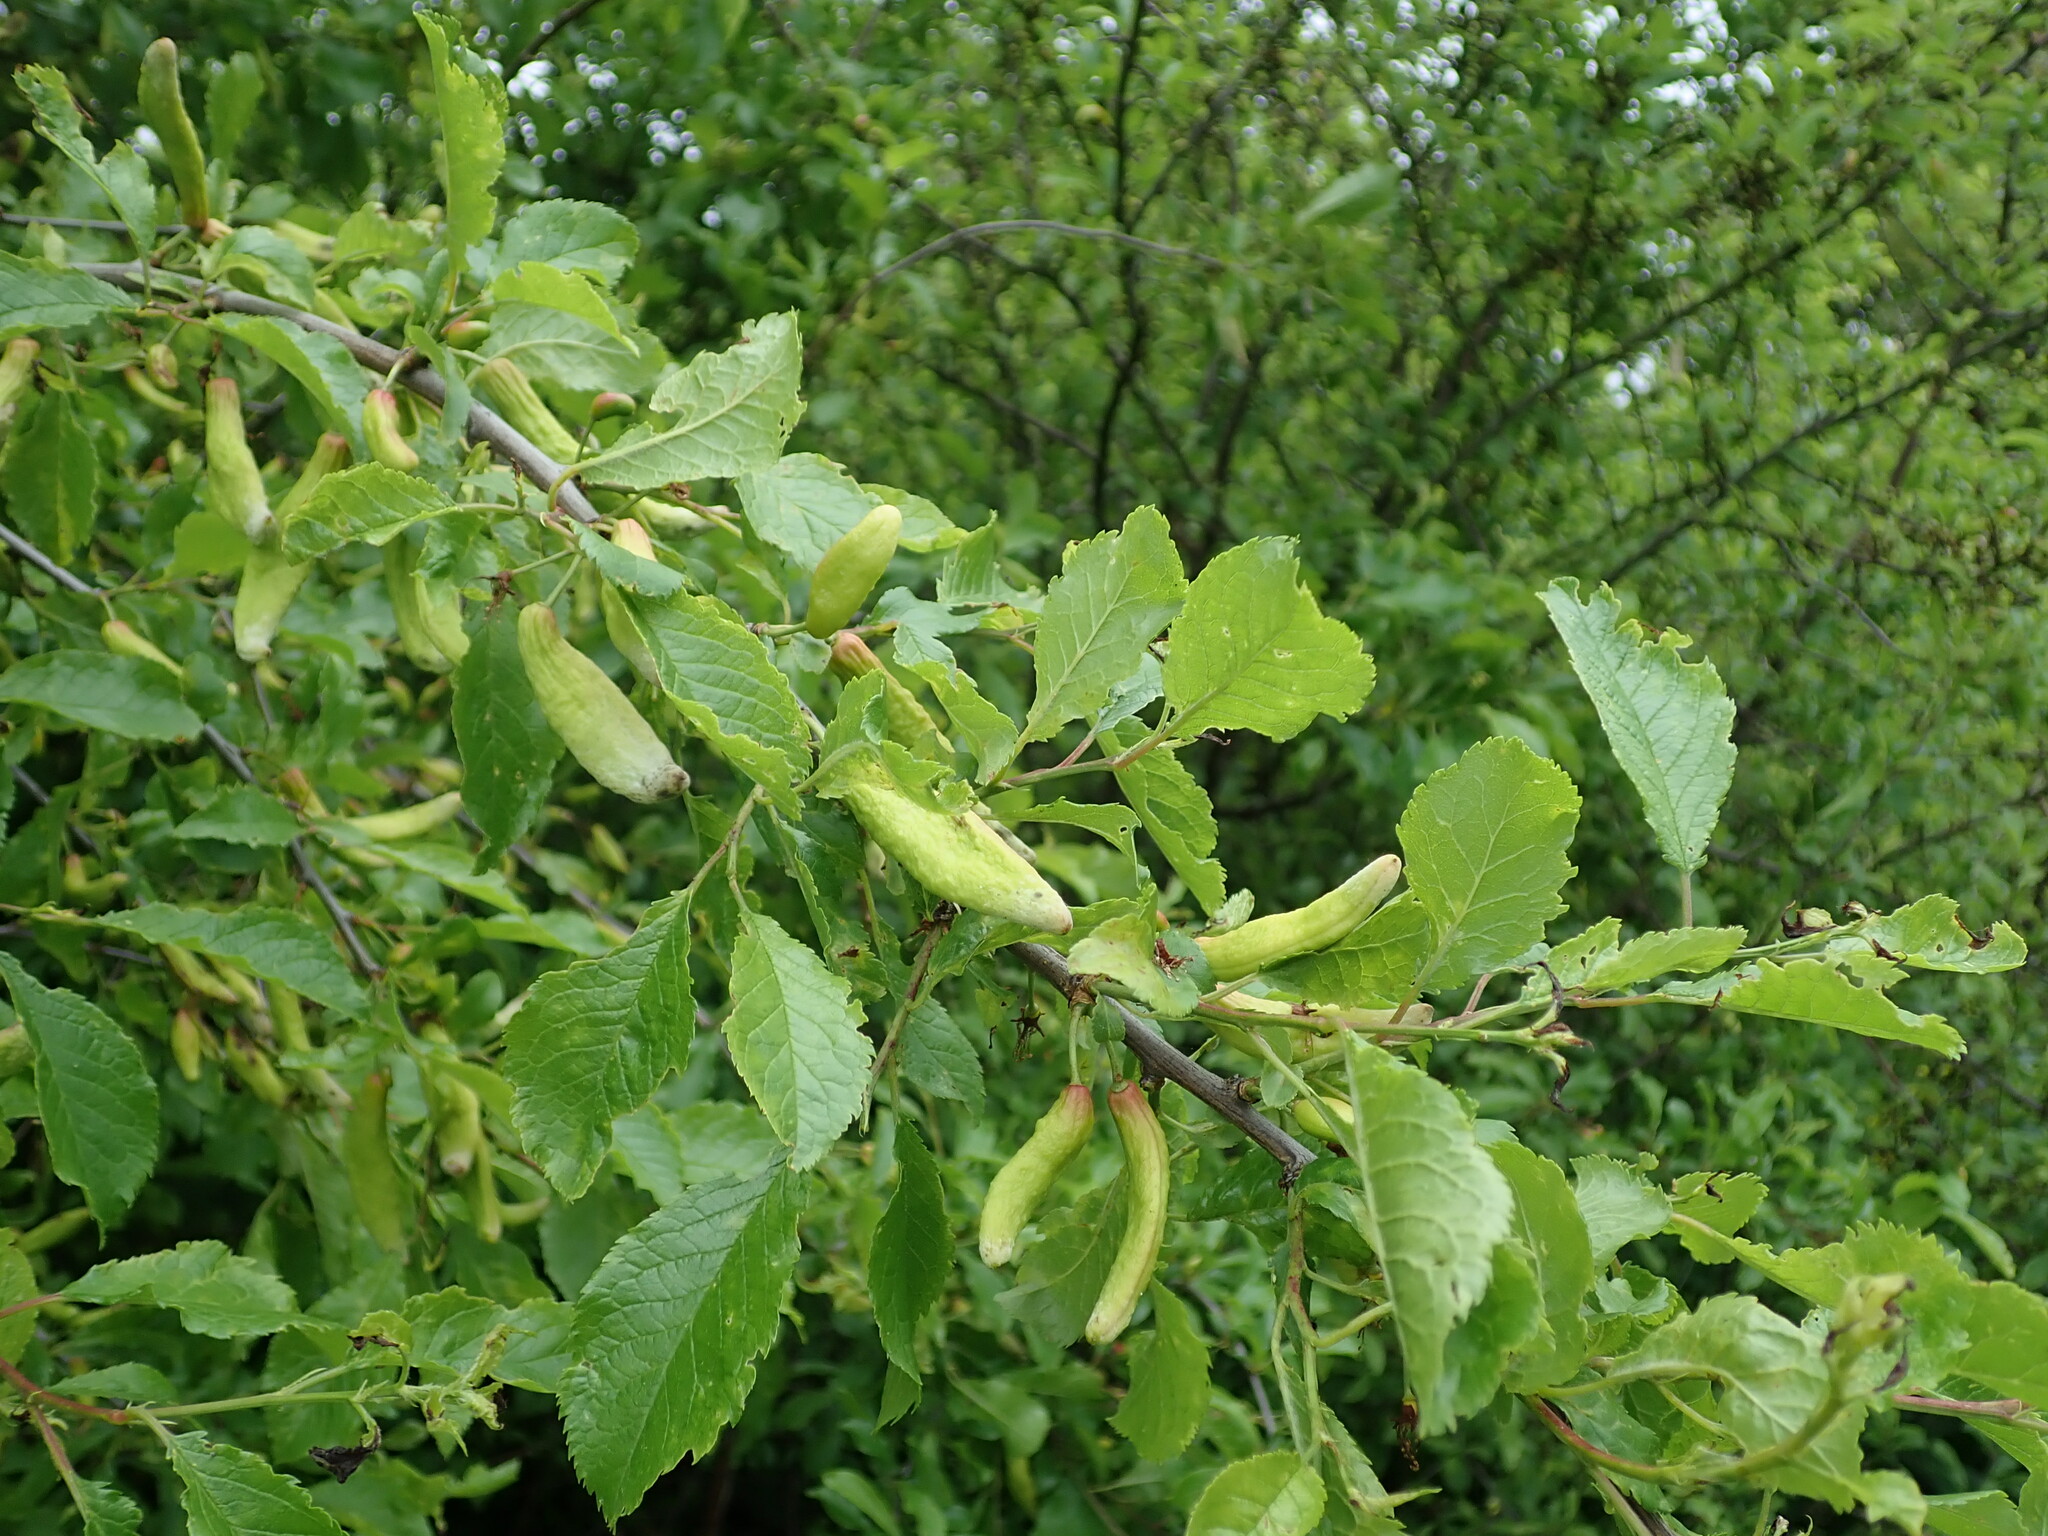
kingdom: Fungi
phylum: Ascomycota
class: Taphrinomycetes
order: Taphrinales
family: Taphrinaceae
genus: Taphrina
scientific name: Taphrina pruni
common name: Pocket plum
